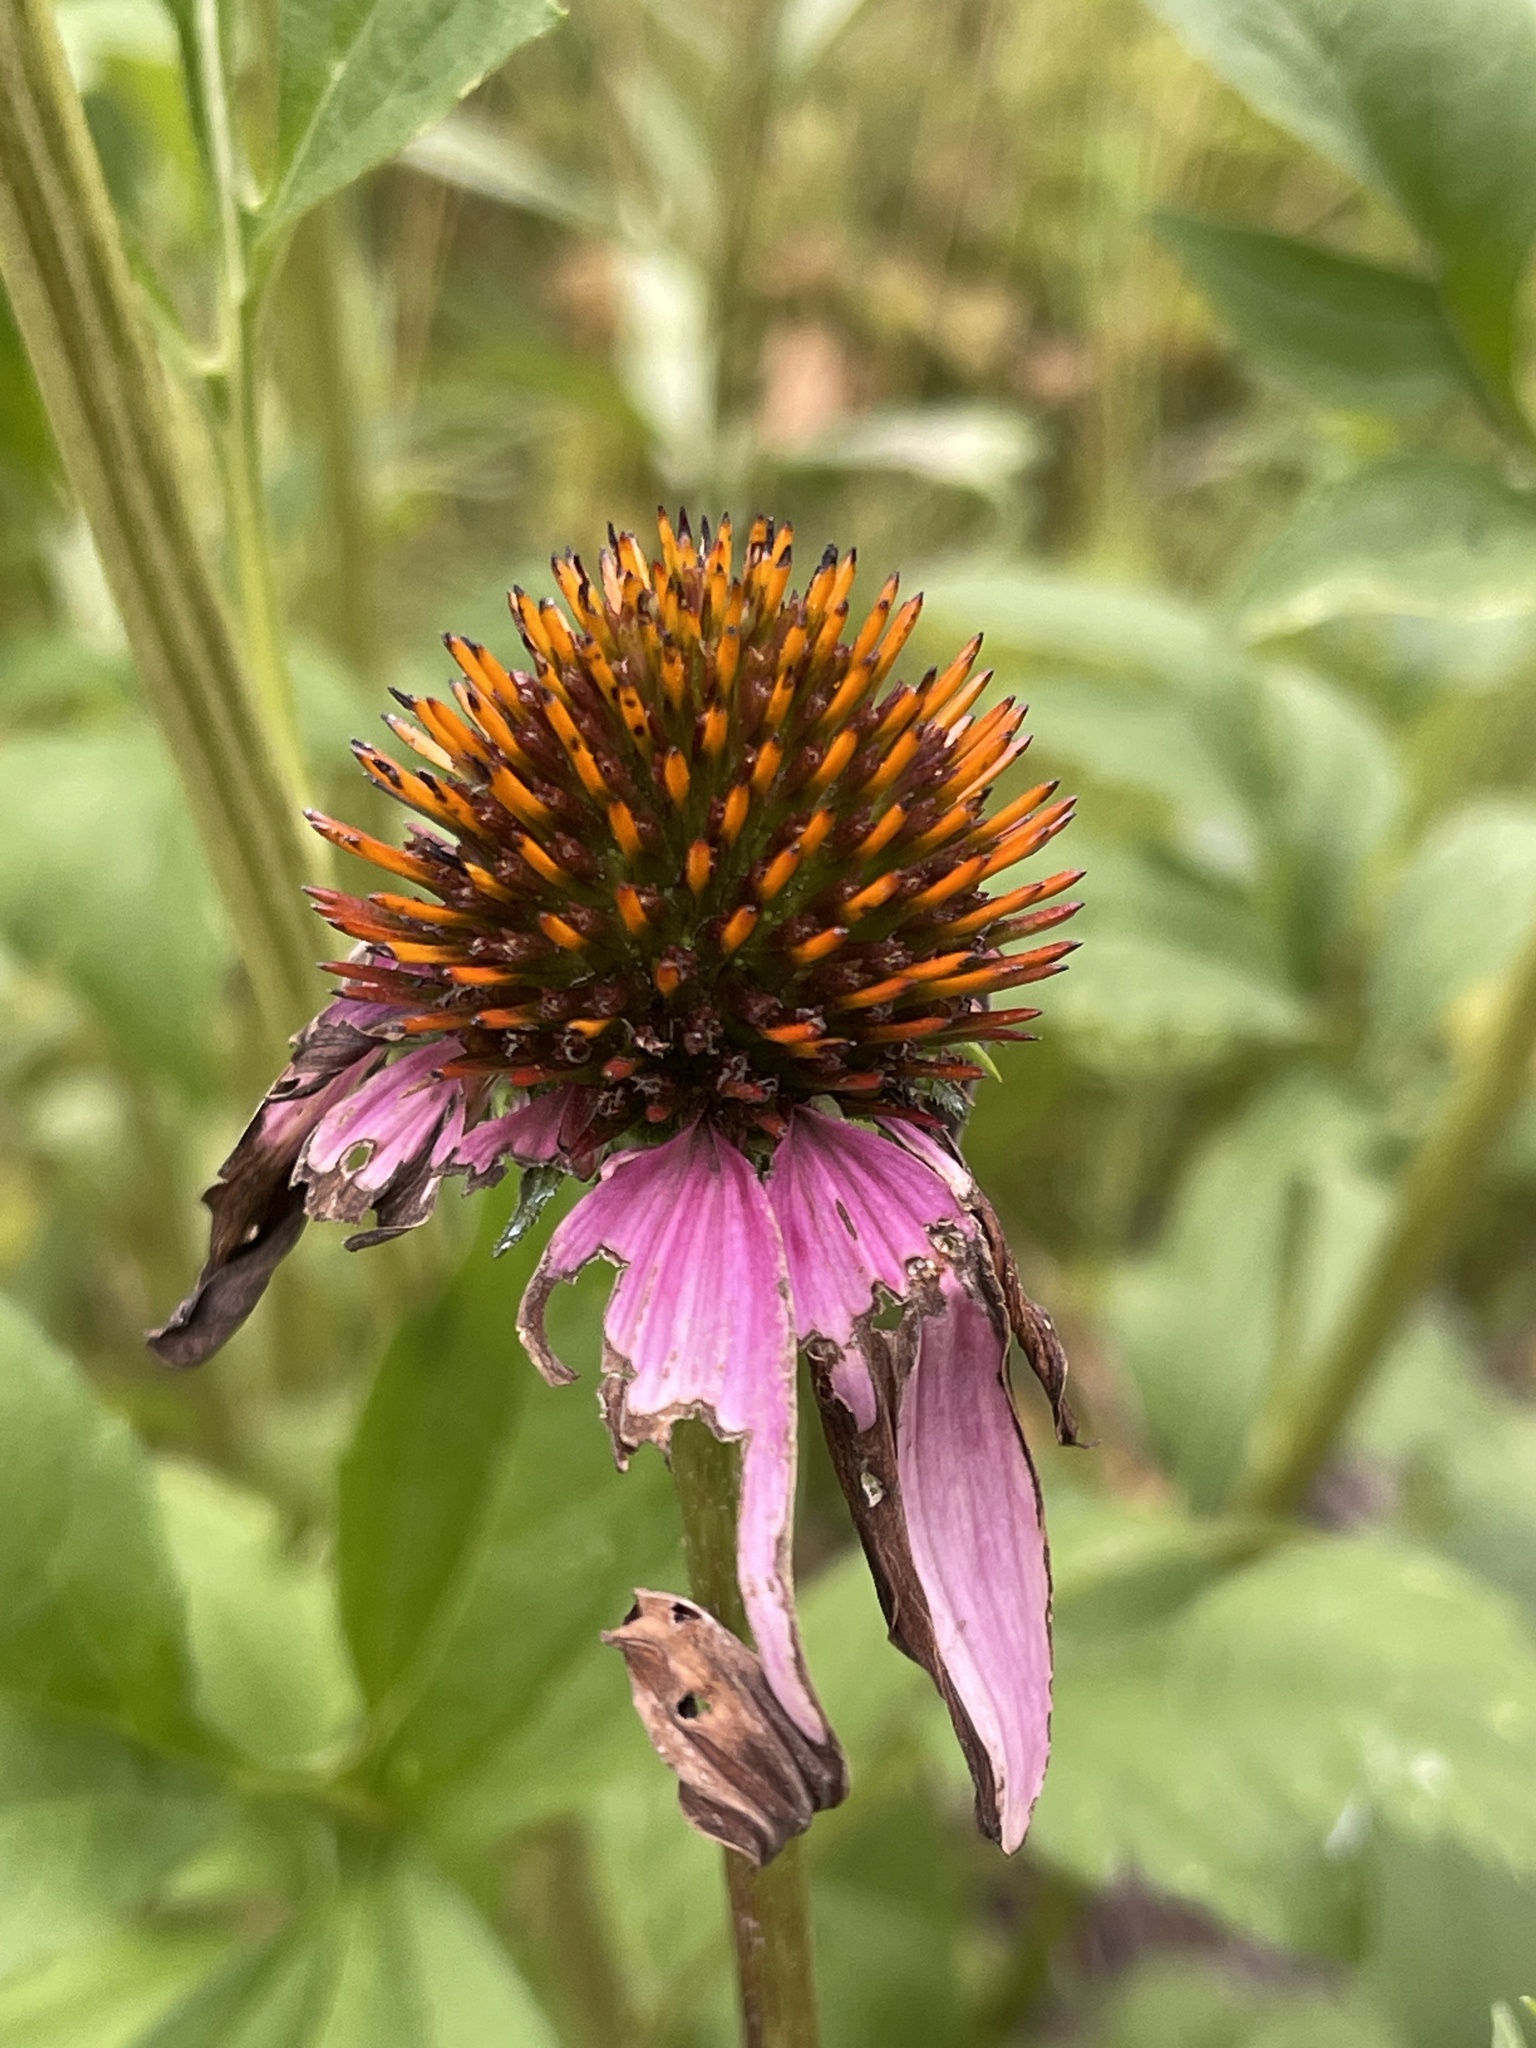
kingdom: Plantae
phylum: Tracheophyta
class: Magnoliopsida
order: Asterales
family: Asteraceae
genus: Echinacea
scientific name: Echinacea purpurea
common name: Broad-leaved purple coneflower
